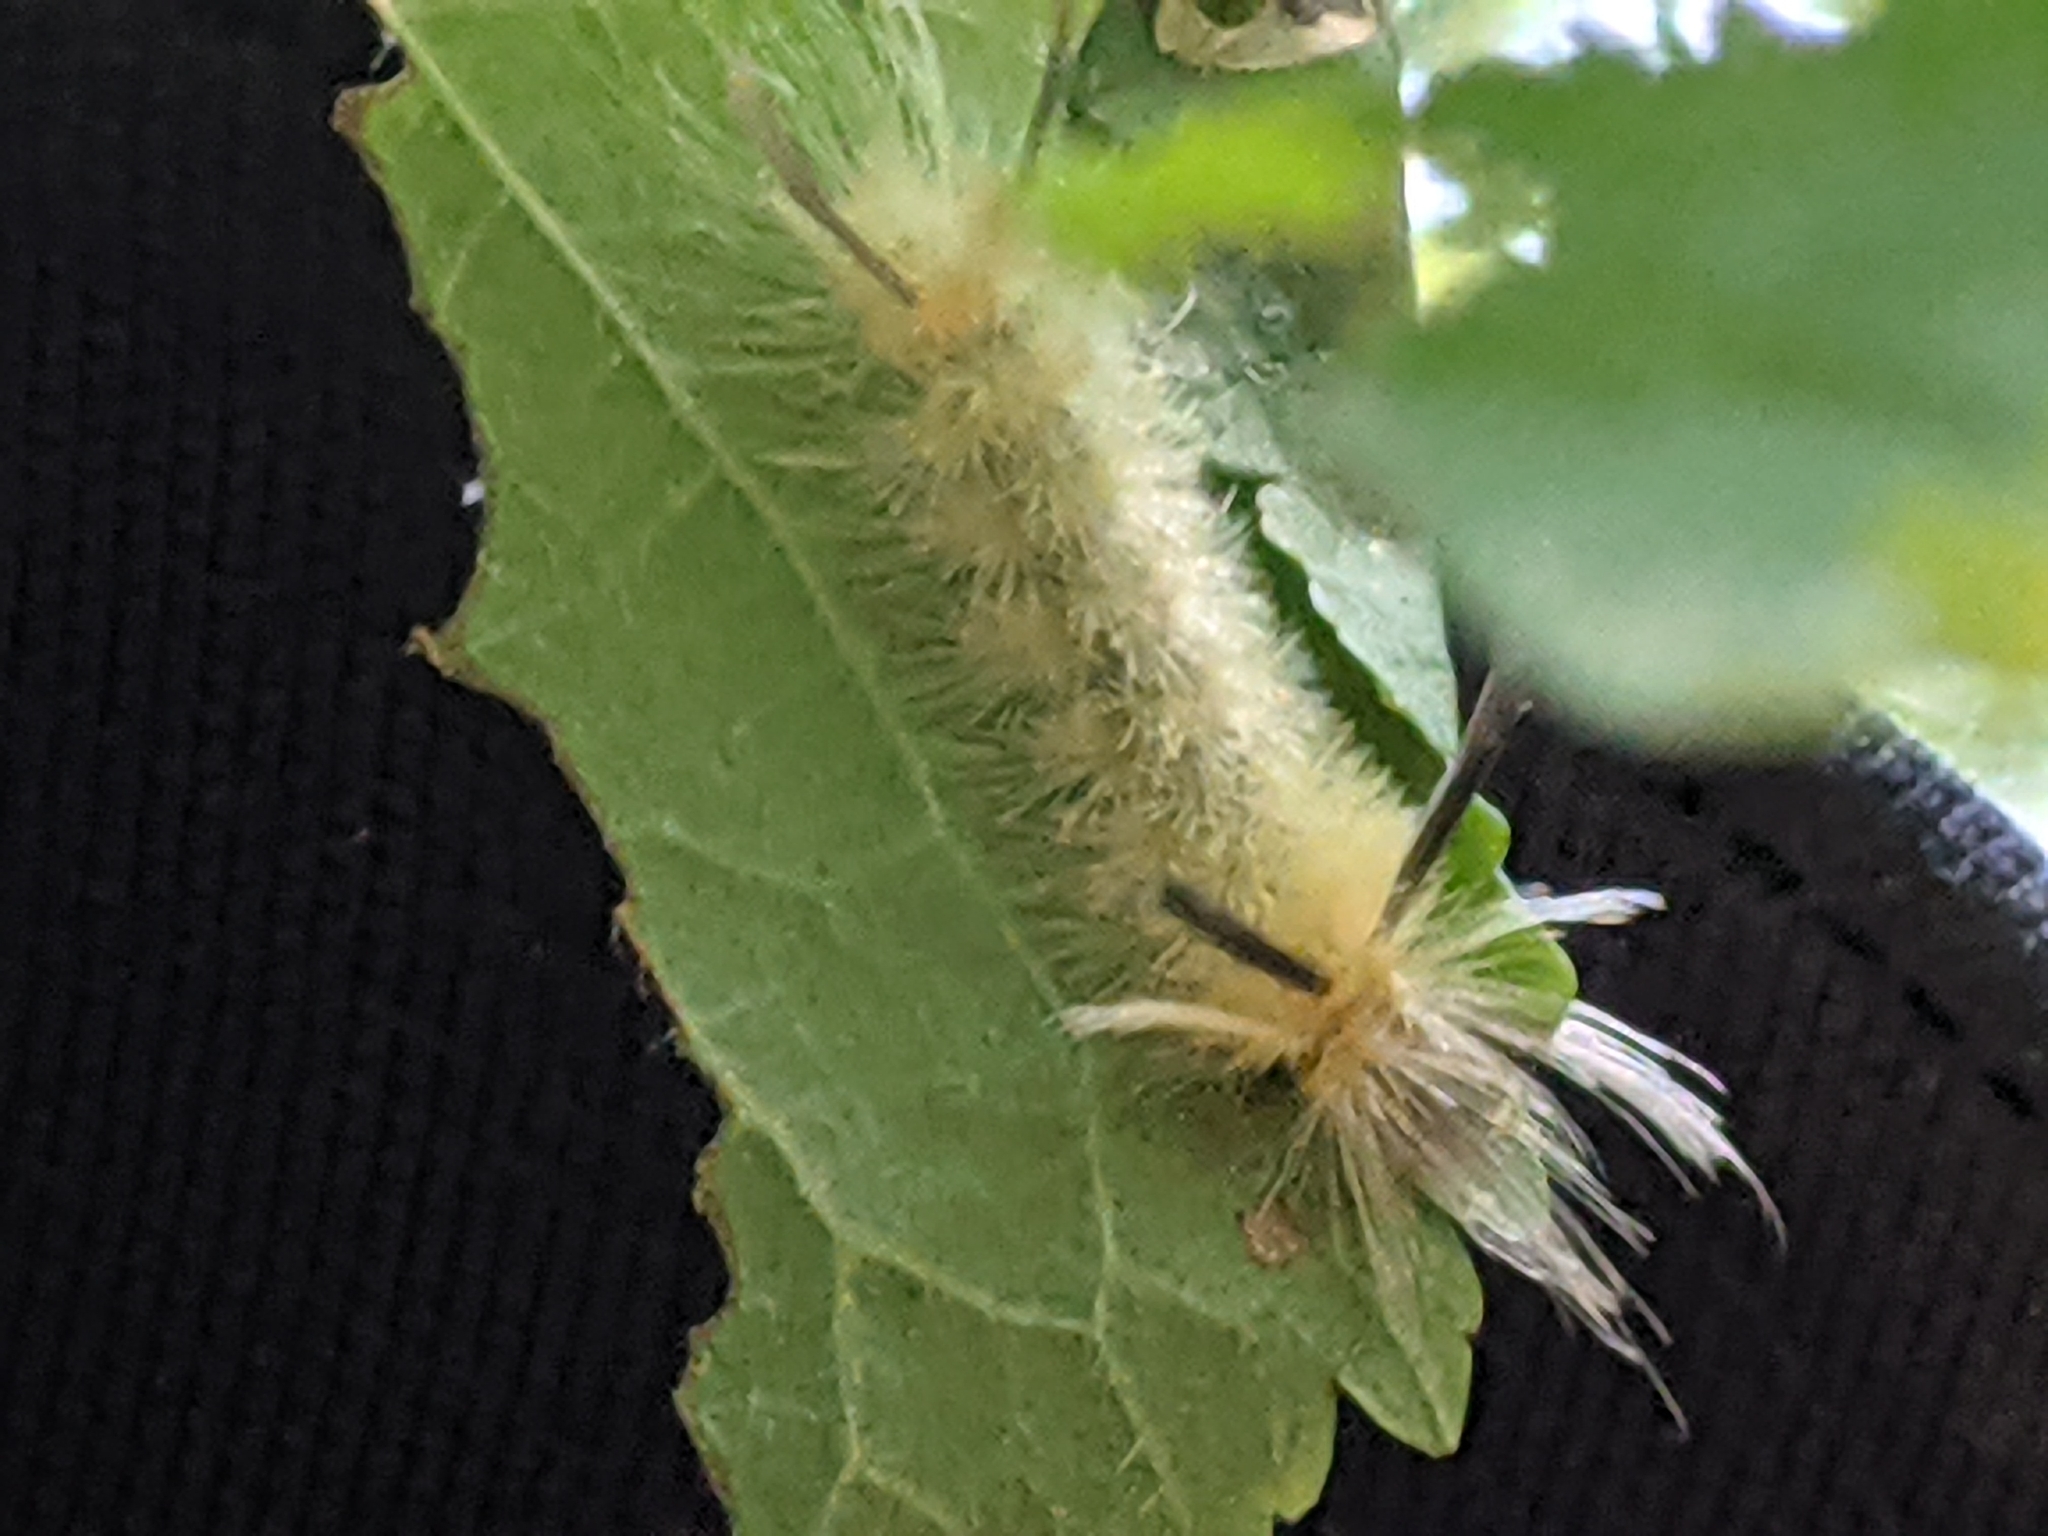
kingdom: Animalia
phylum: Arthropoda
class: Insecta
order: Lepidoptera
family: Erebidae
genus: Halysidota
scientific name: Halysidota tessellaris
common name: Banded tussock moth
